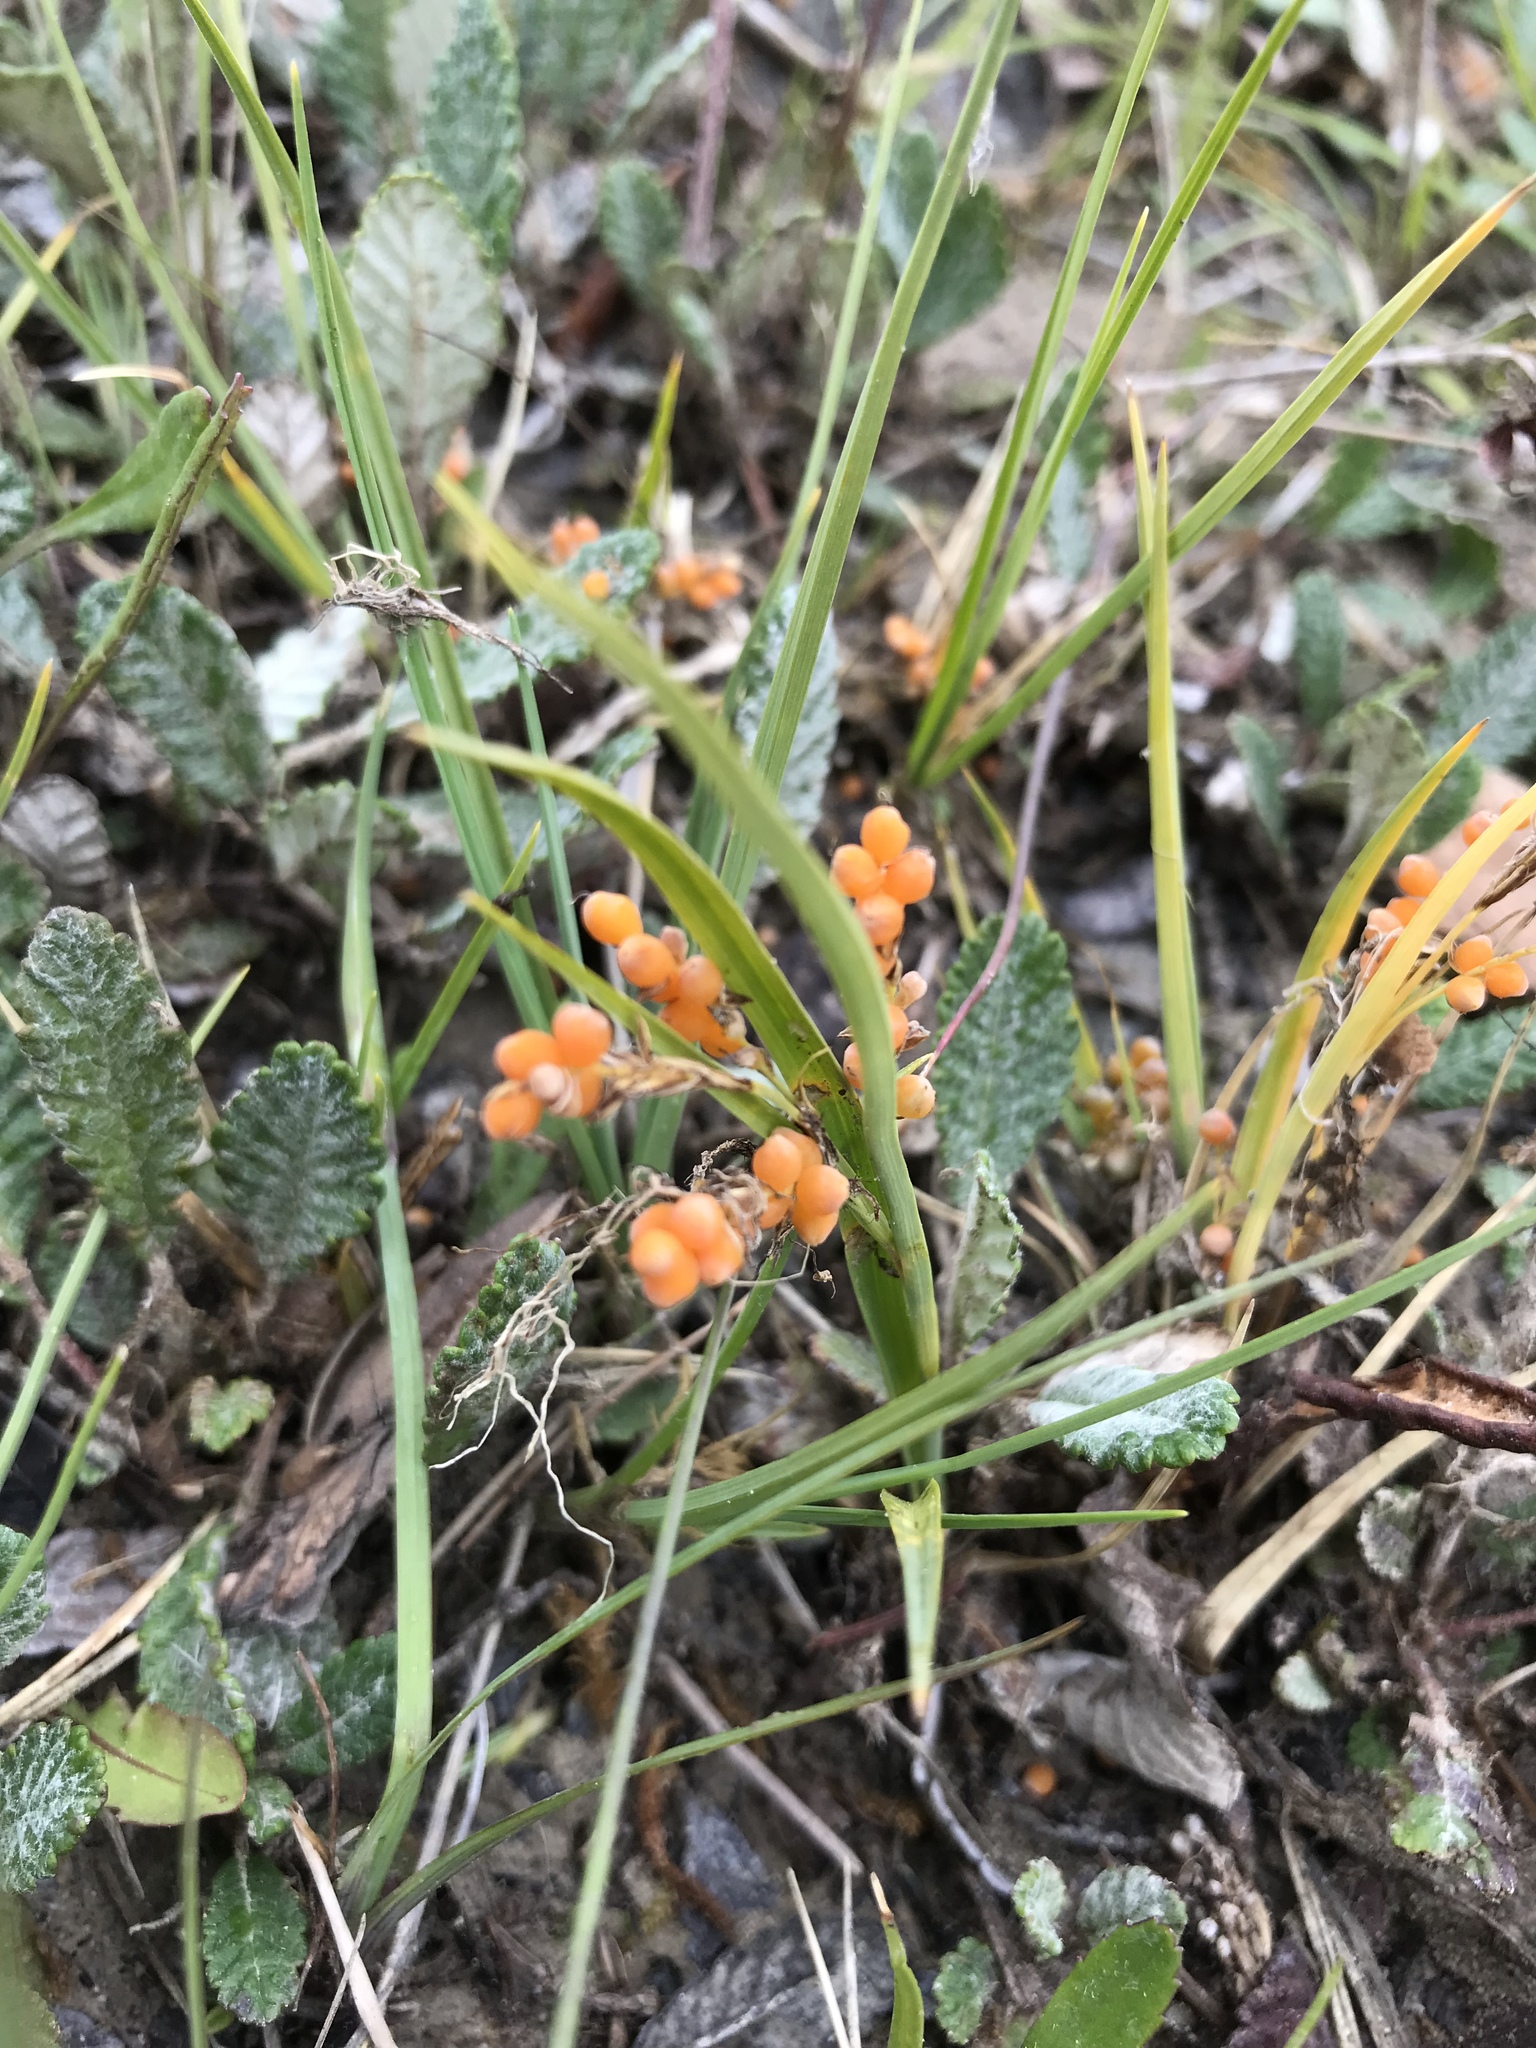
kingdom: Plantae
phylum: Tracheophyta
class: Liliopsida
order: Poales
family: Cyperaceae
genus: Carex
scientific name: Carex aurea
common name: Golden sedge
